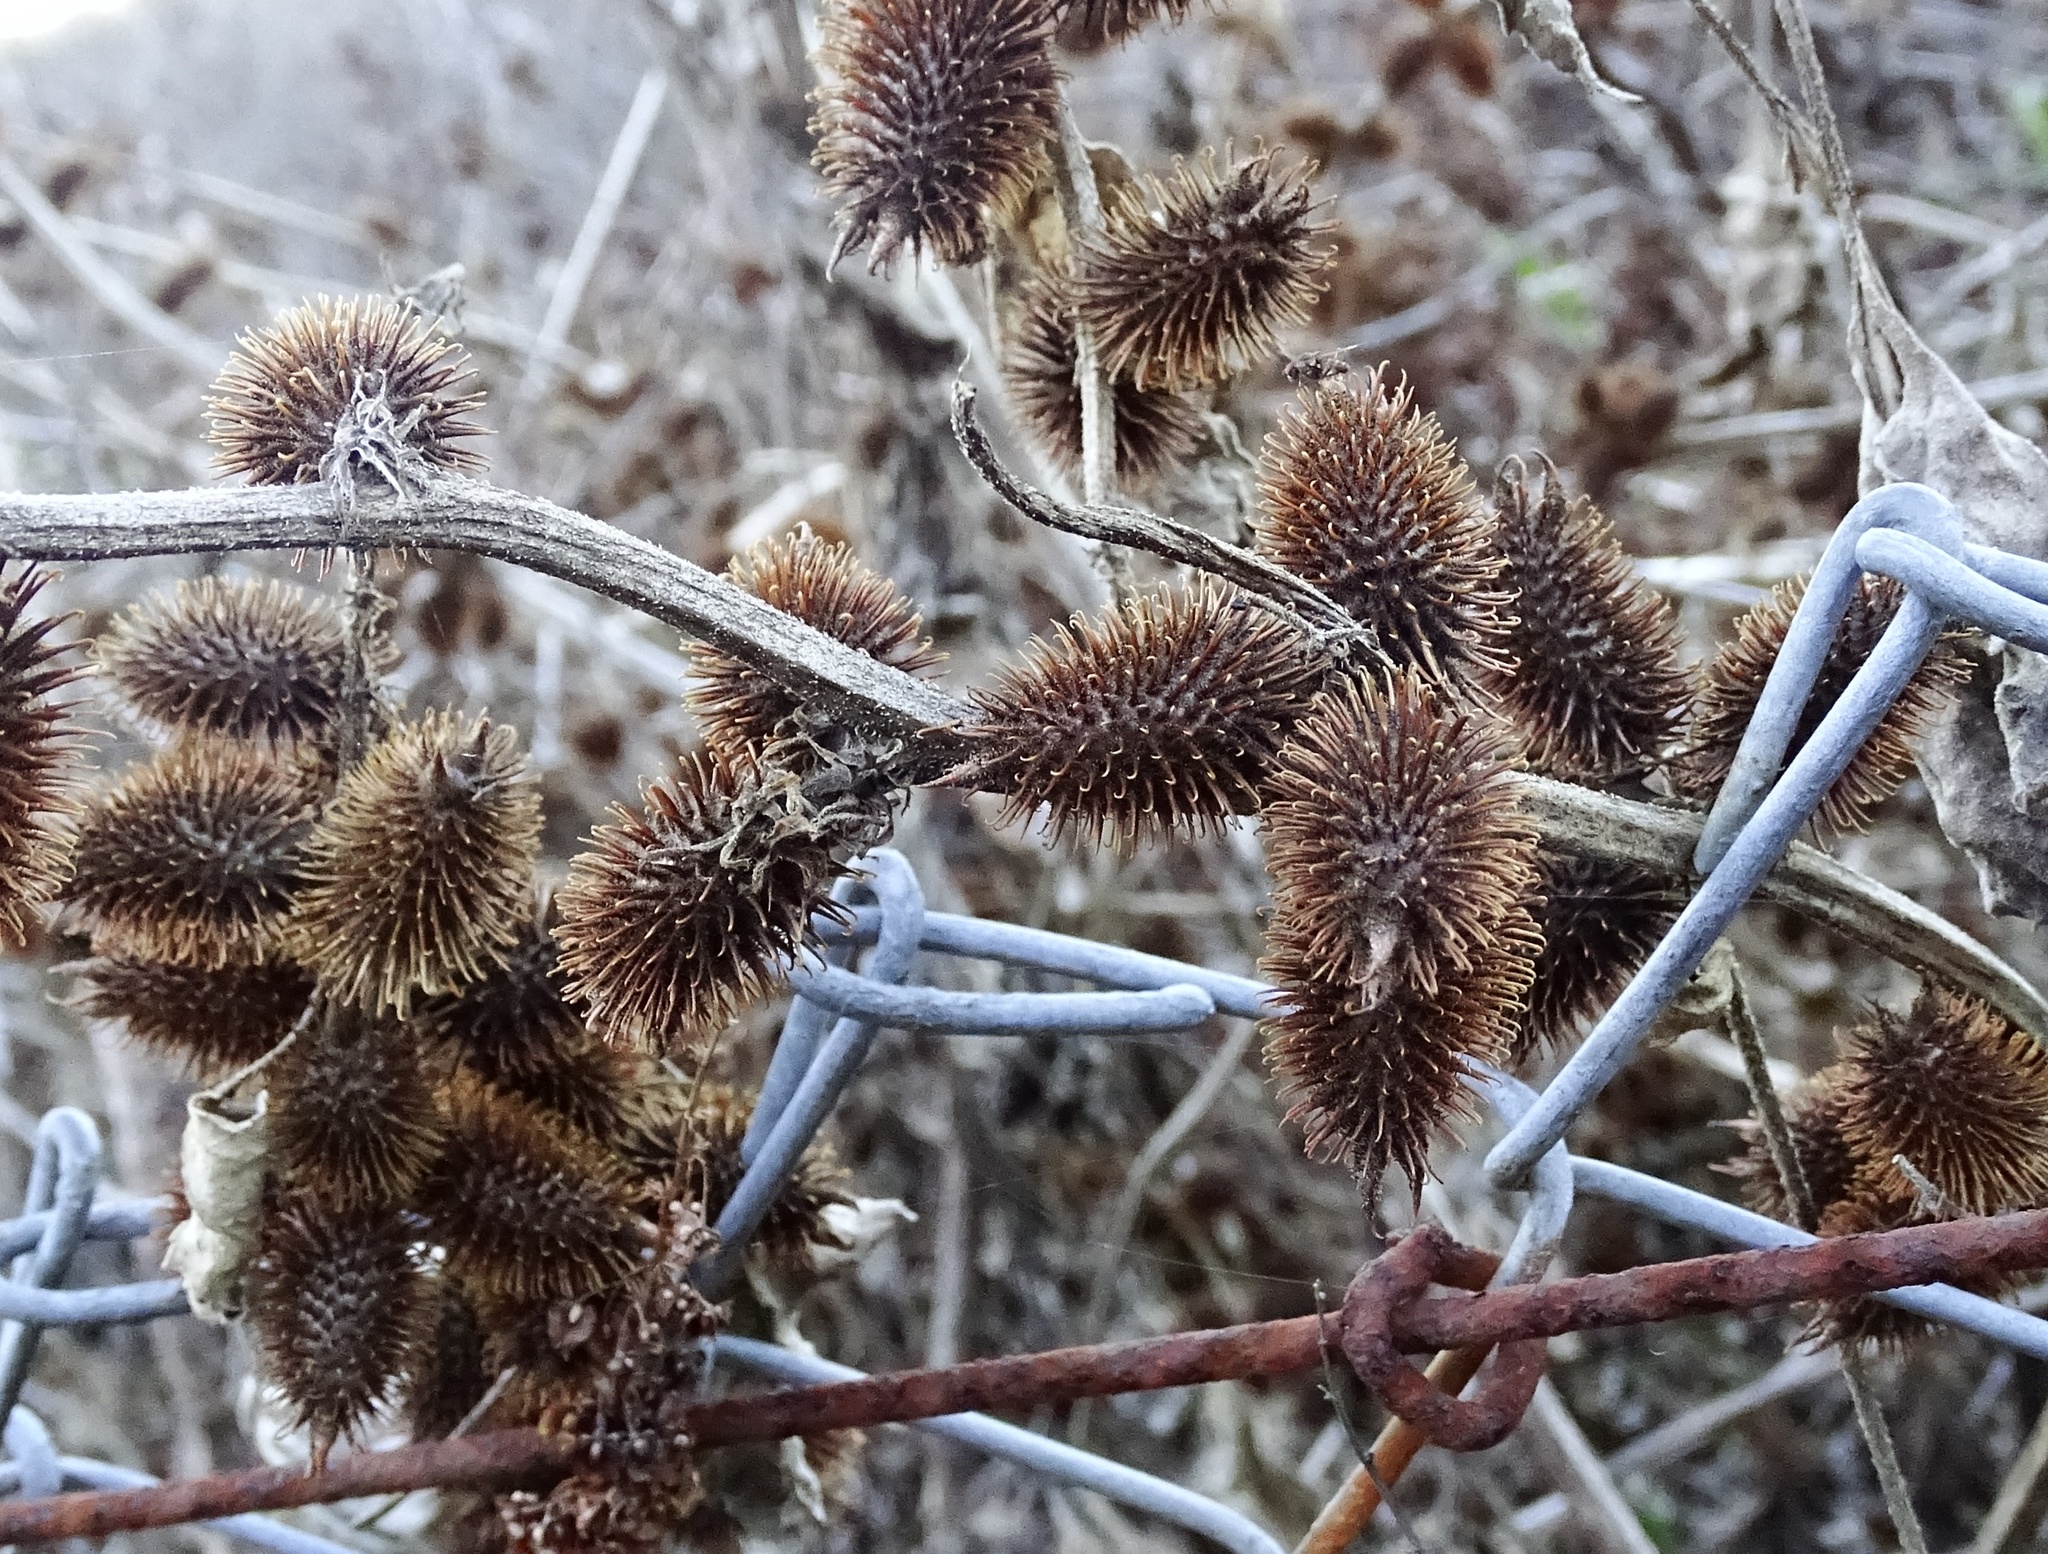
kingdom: Plantae
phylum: Tracheophyta
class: Magnoliopsida
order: Asterales
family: Asteraceae
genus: Xanthium
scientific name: Xanthium strumarium
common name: Rough cocklebur
